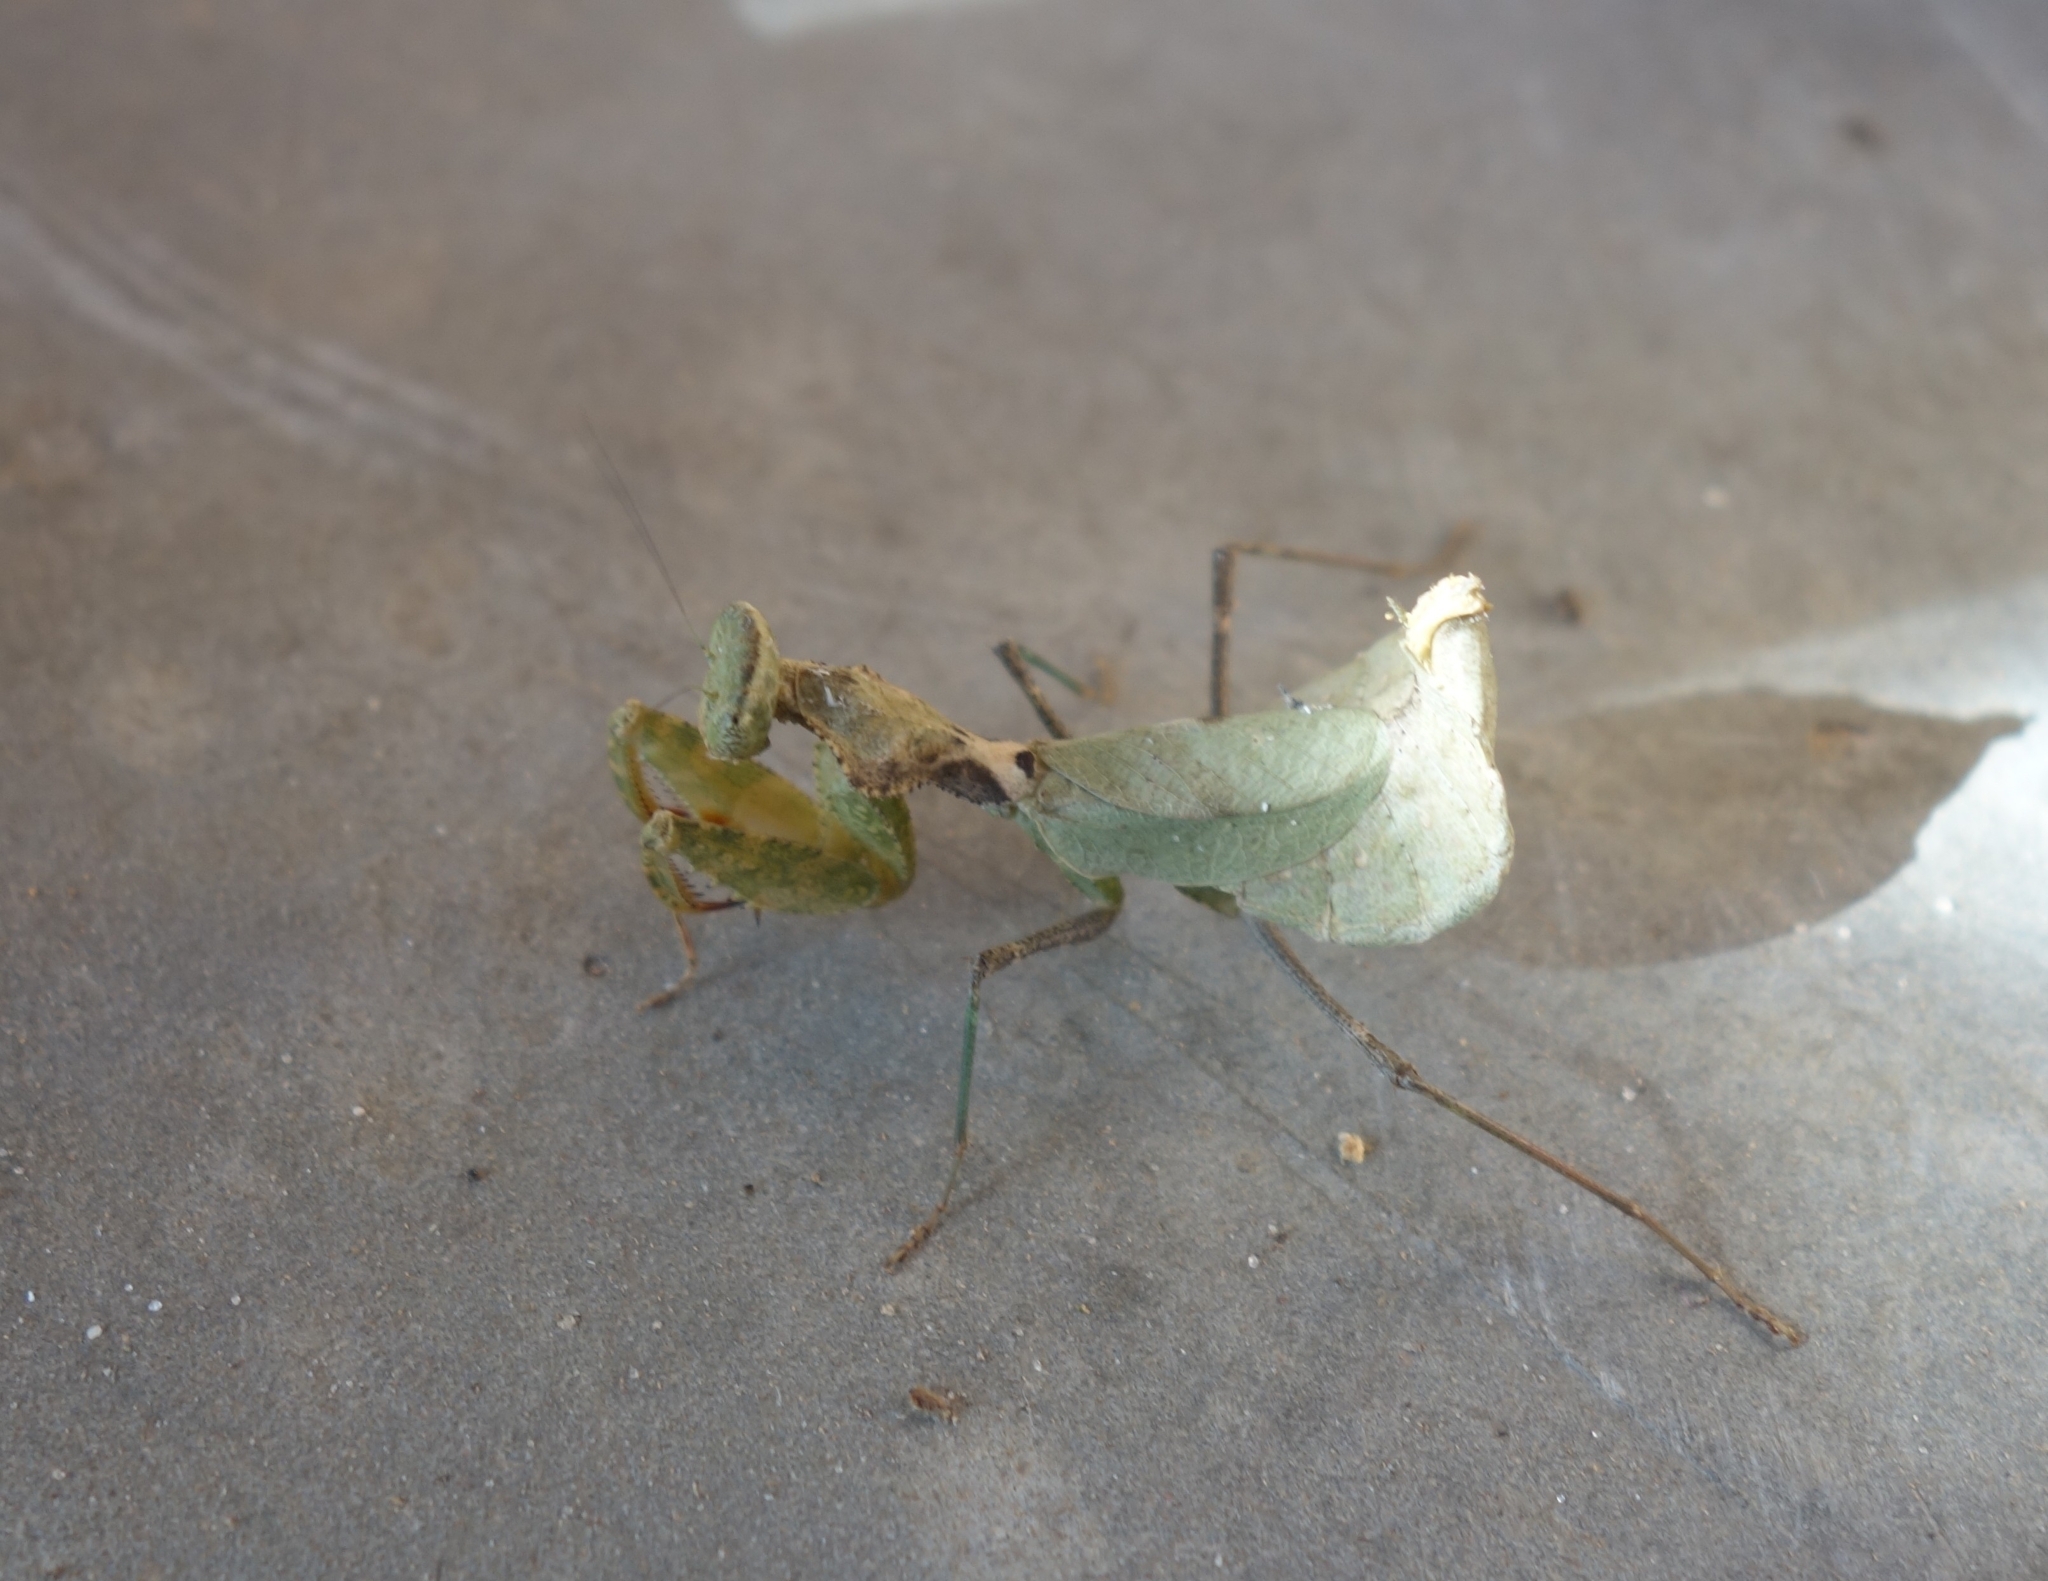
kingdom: Animalia
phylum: Arthropoda
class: Insecta
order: Mantodea
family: Chroicopteridae
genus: Dystacta
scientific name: Dystacta alticeps
